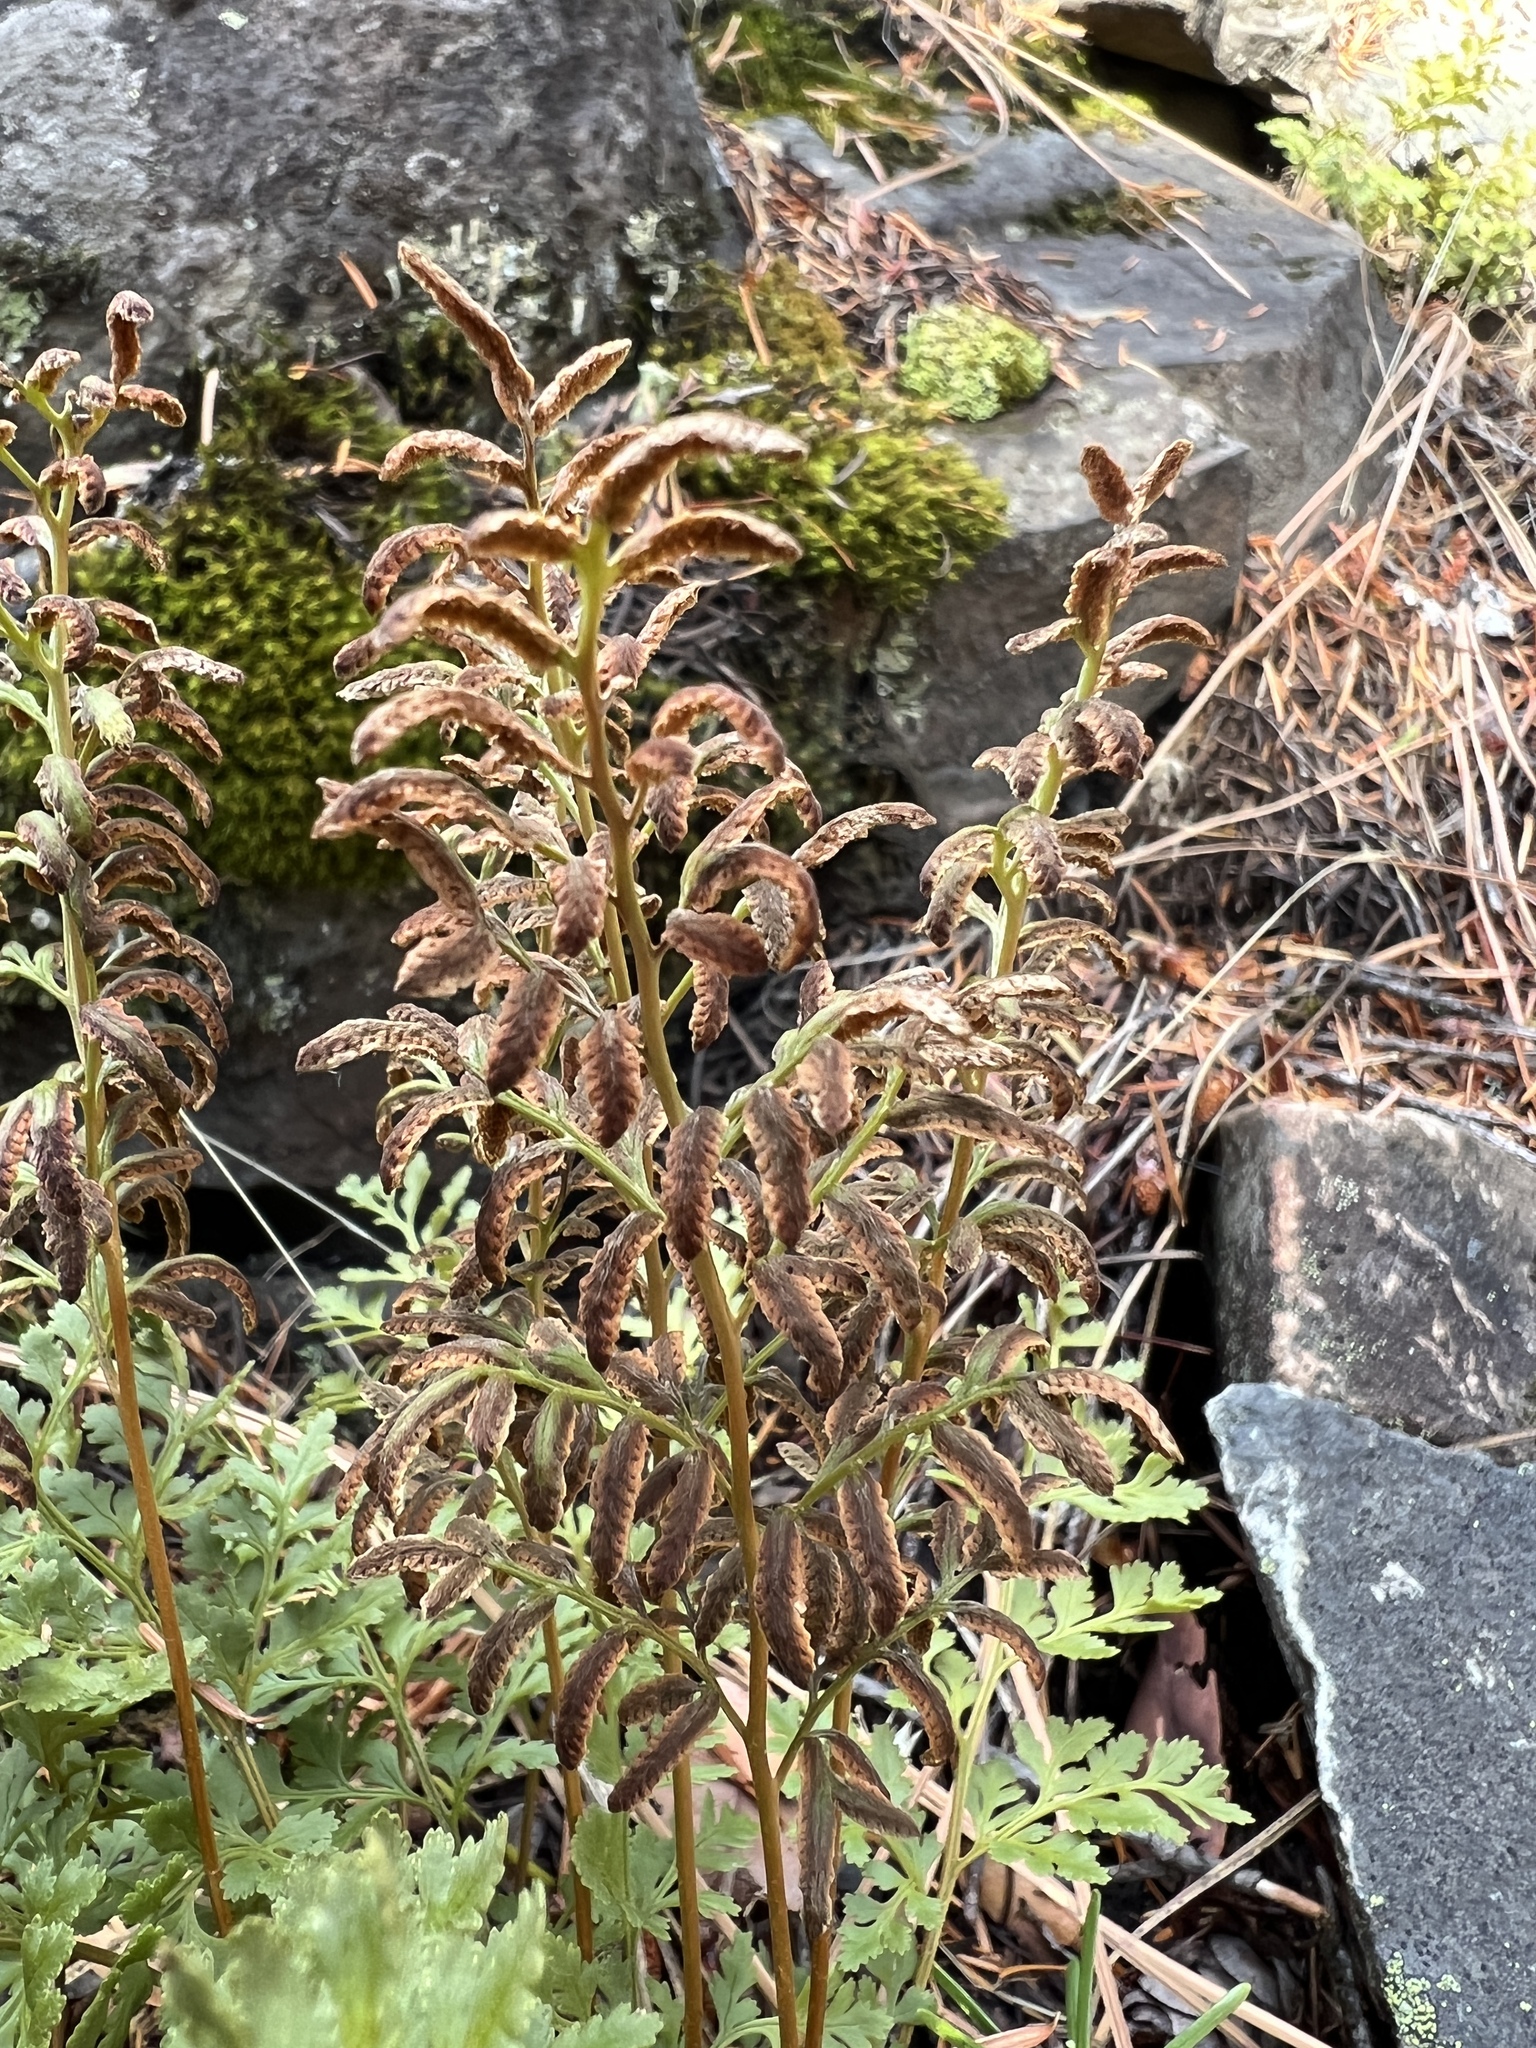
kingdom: Plantae
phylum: Tracheophyta
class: Polypodiopsida
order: Polypodiales
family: Pteridaceae
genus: Cryptogramma
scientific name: Cryptogramma acrostichoides
